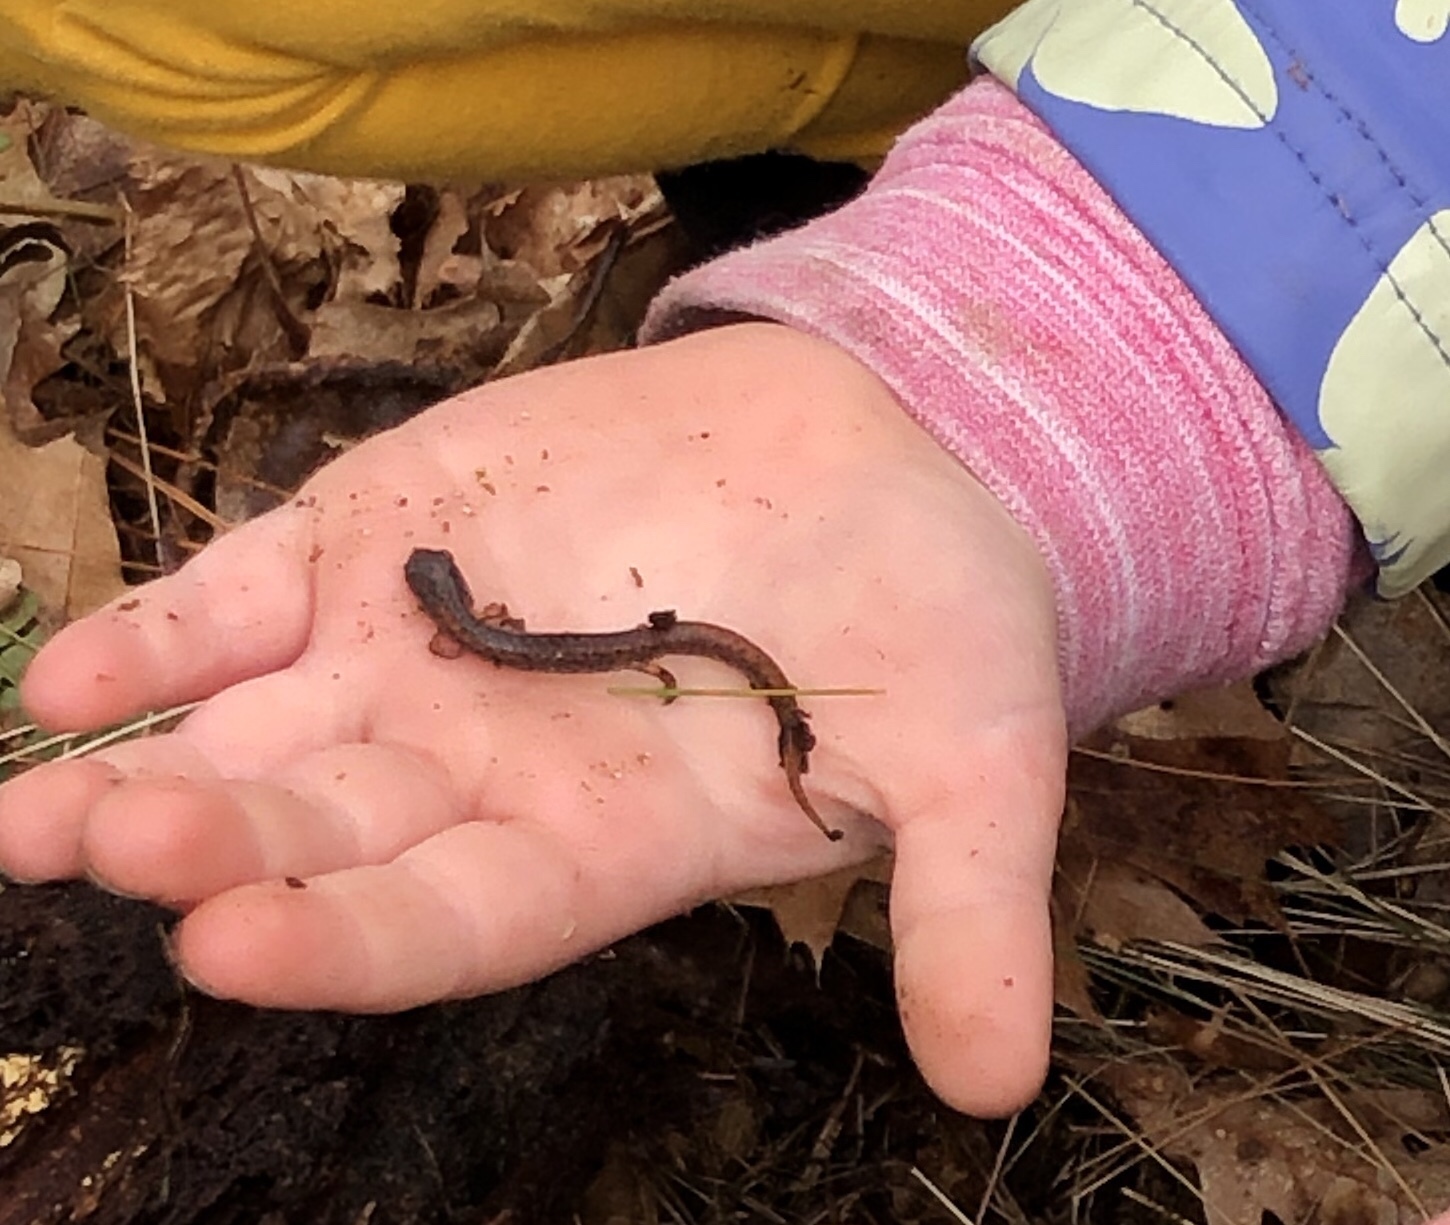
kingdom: Animalia
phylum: Chordata
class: Amphibia
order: Caudata
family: Plethodontidae
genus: Hemidactylium
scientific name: Hemidactylium scutatum
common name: Four-toed salamander
